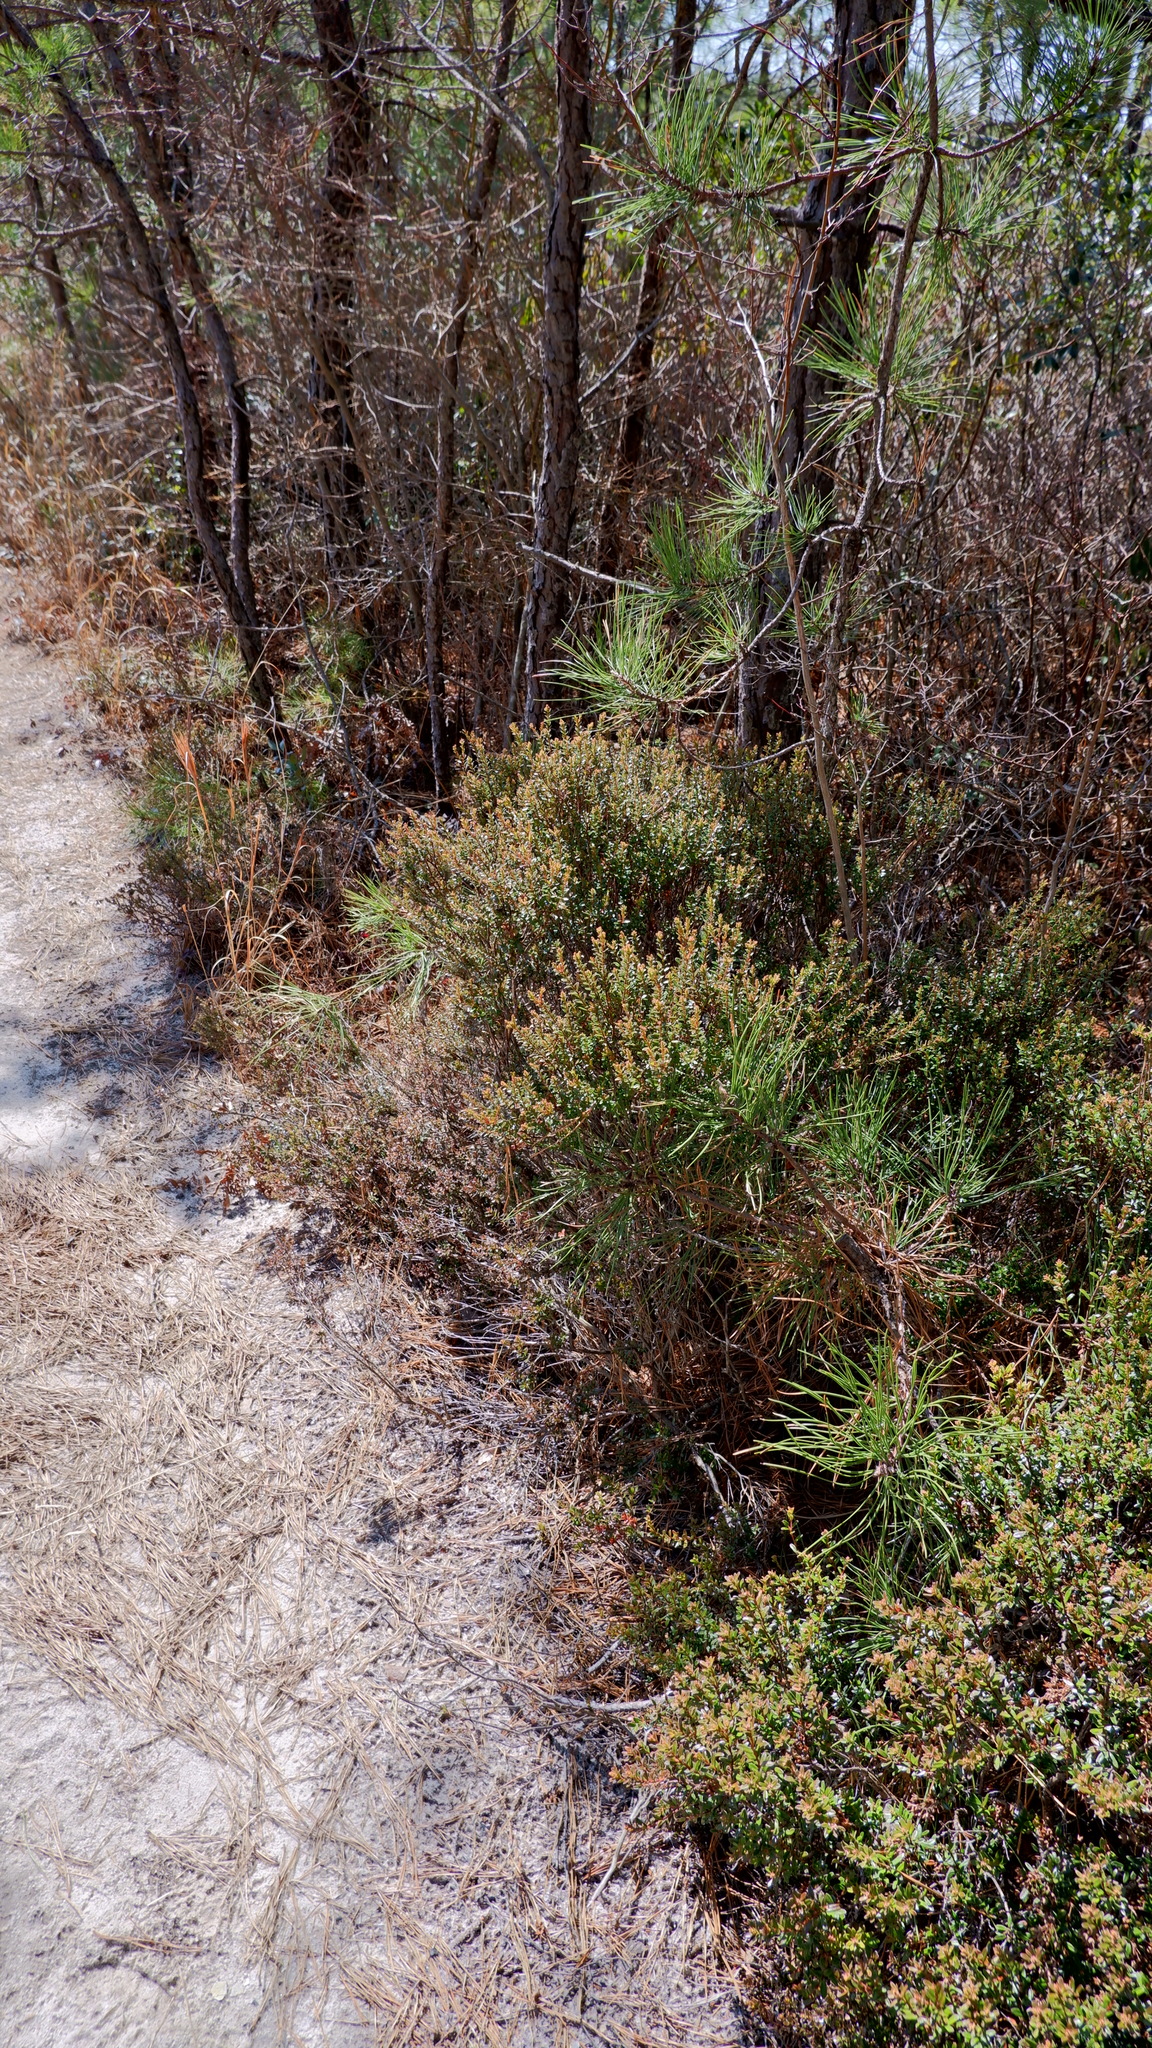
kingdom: Plantae
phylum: Tracheophyta
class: Magnoliopsida
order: Ericales
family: Ericaceae
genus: Kalmia
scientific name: Kalmia buxifolia
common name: Sandmyrtle
